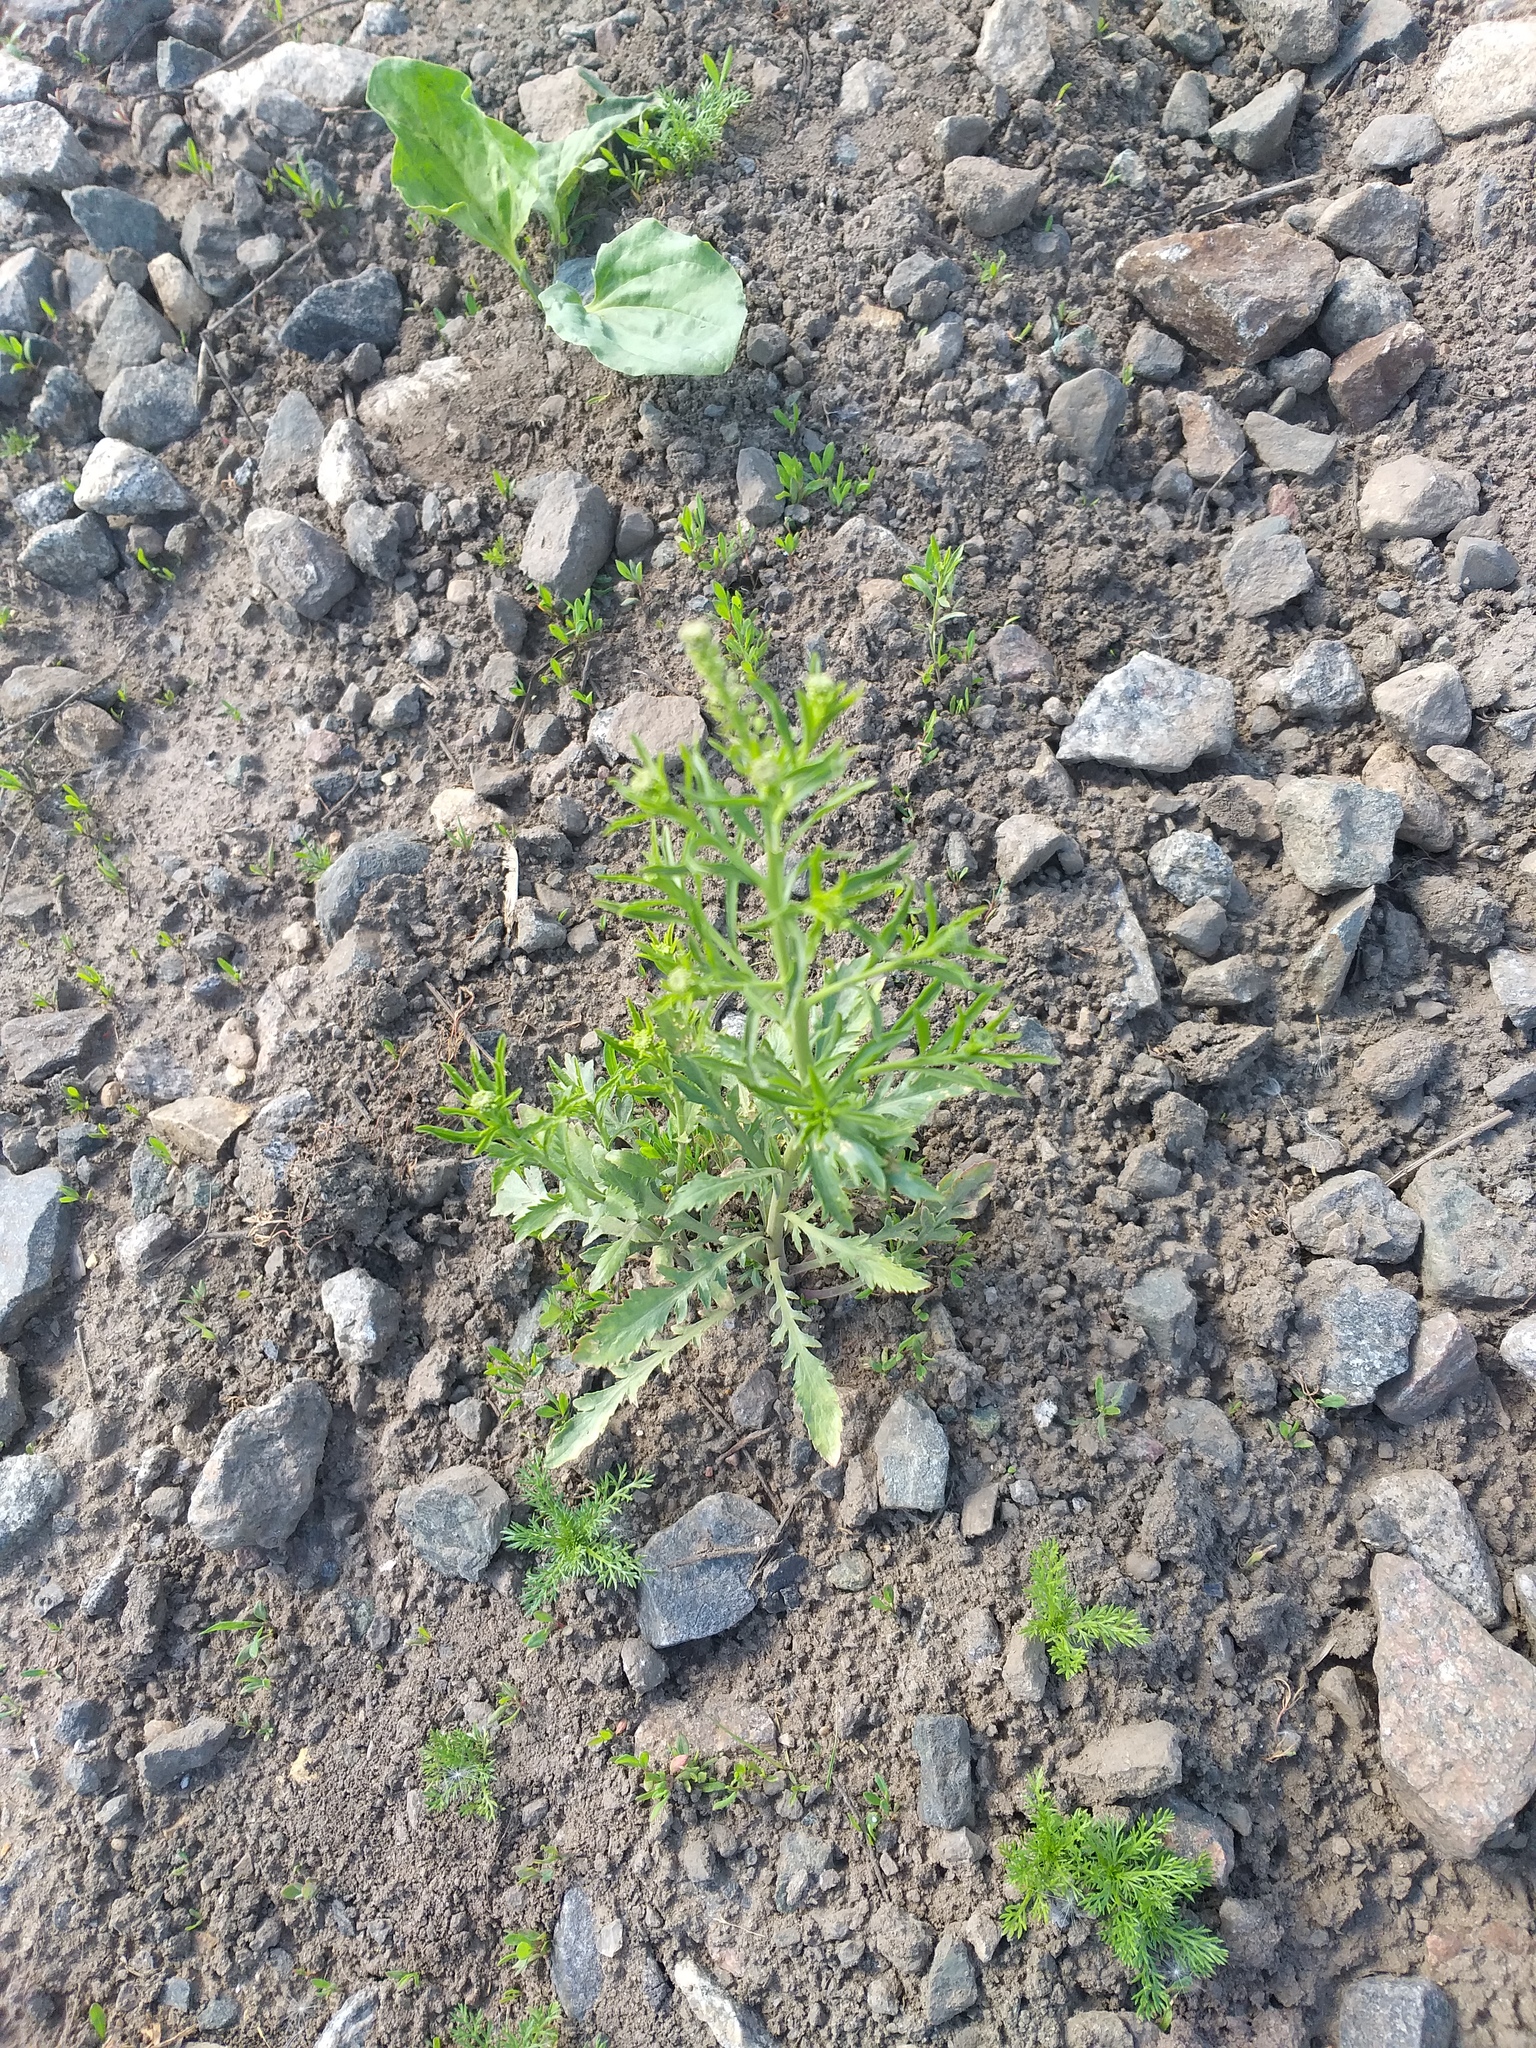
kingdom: Plantae
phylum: Tracheophyta
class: Magnoliopsida
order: Brassicales
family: Brassicaceae
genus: Lepidium
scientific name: Lepidium densiflorum
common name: Miner's pepperwort
